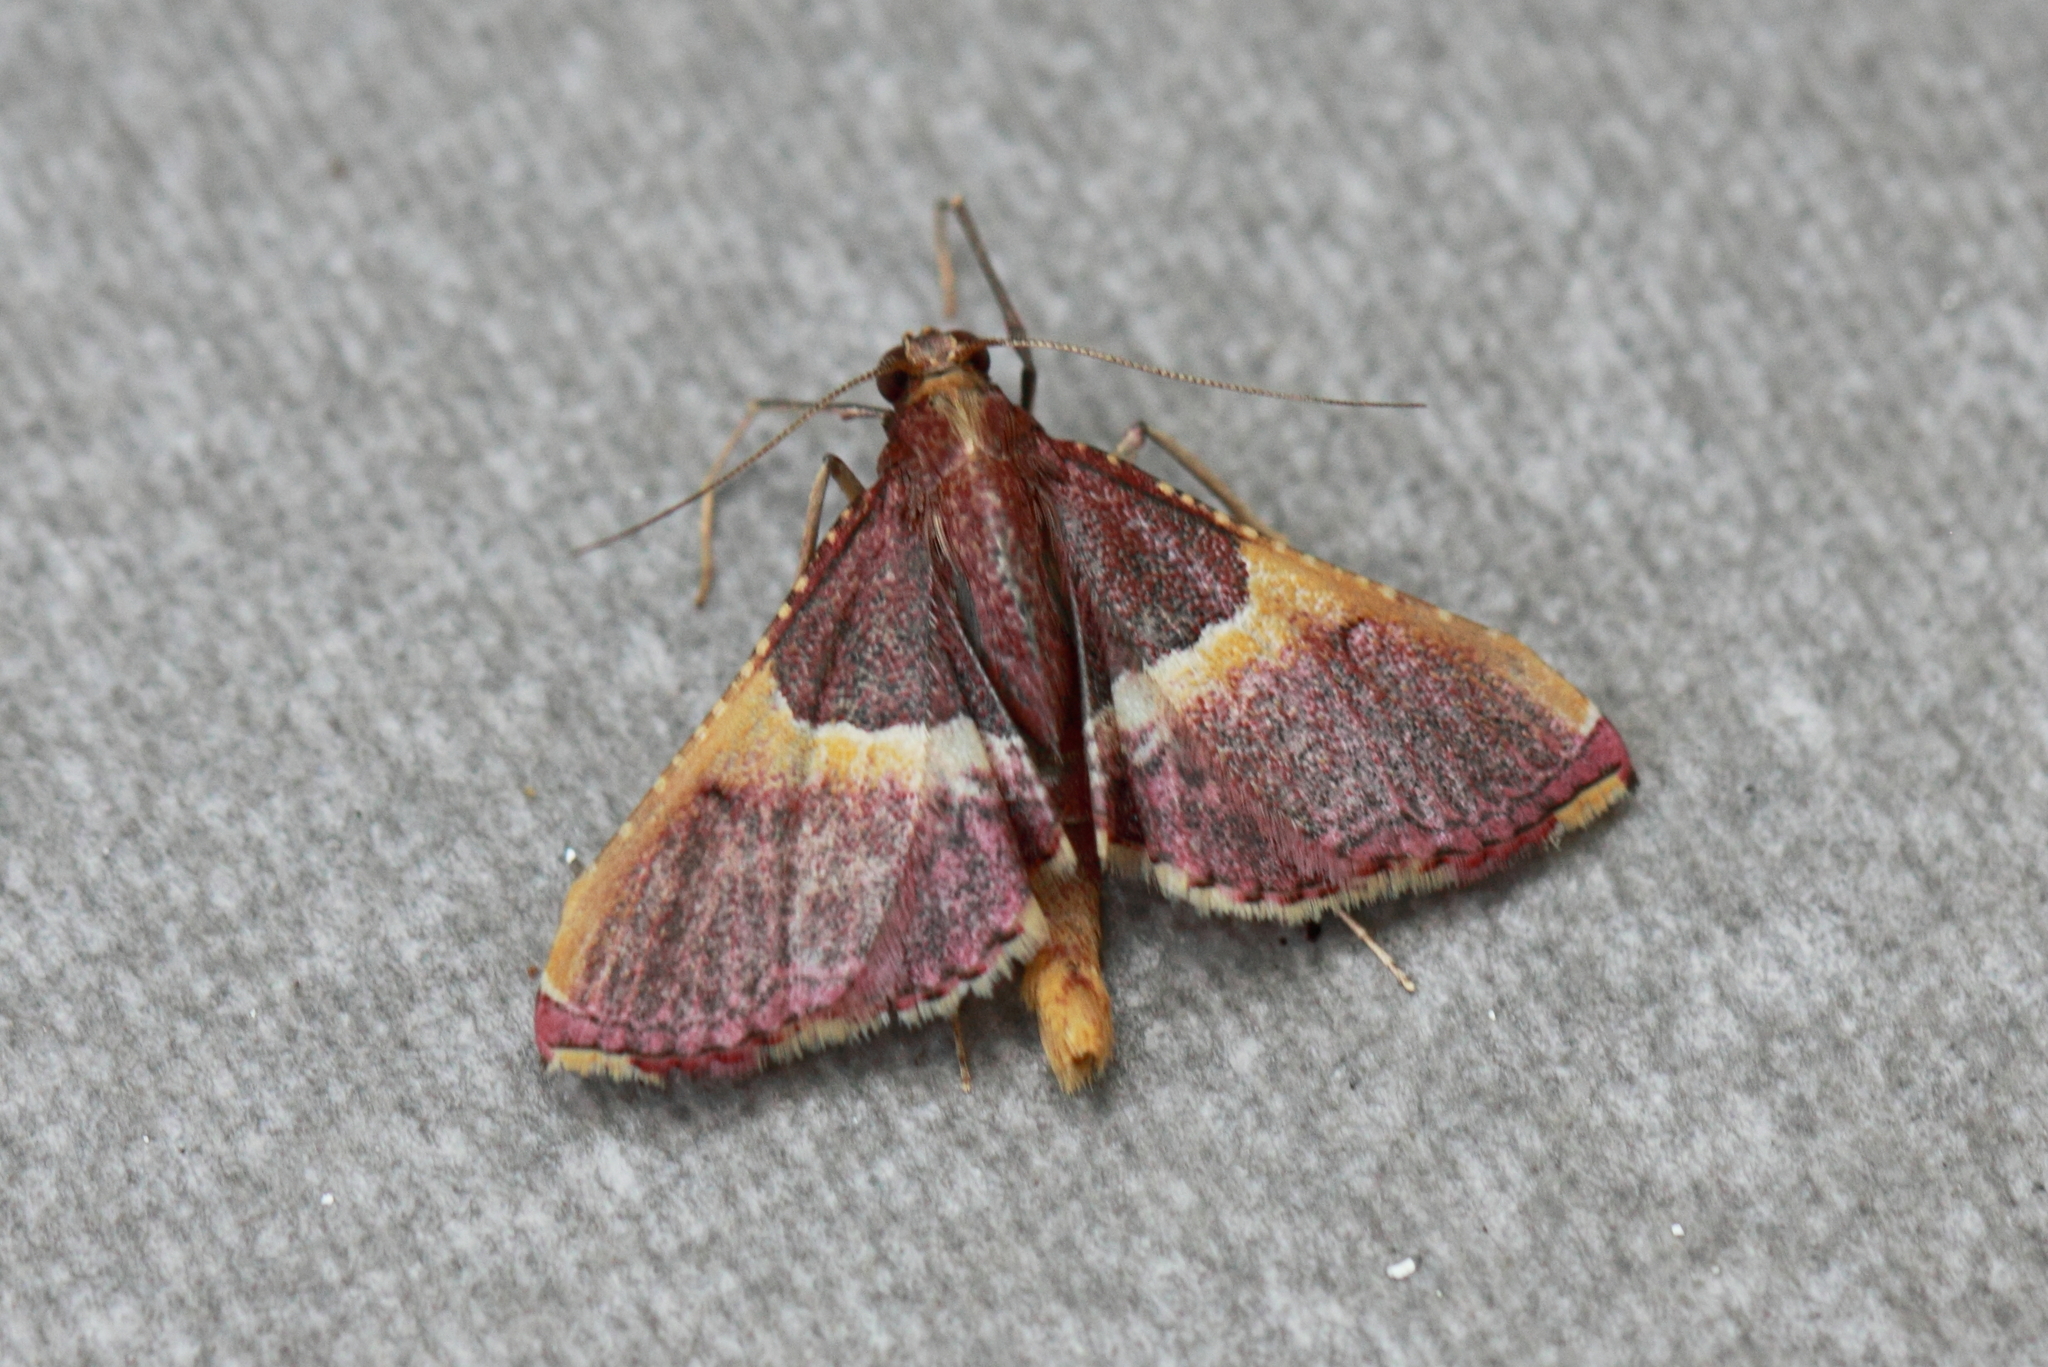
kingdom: Animalia
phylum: Arthropoda
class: Insecta
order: Lepidoptera
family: Pyralidae
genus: Endotricha
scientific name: Endotricha mesenterialis
